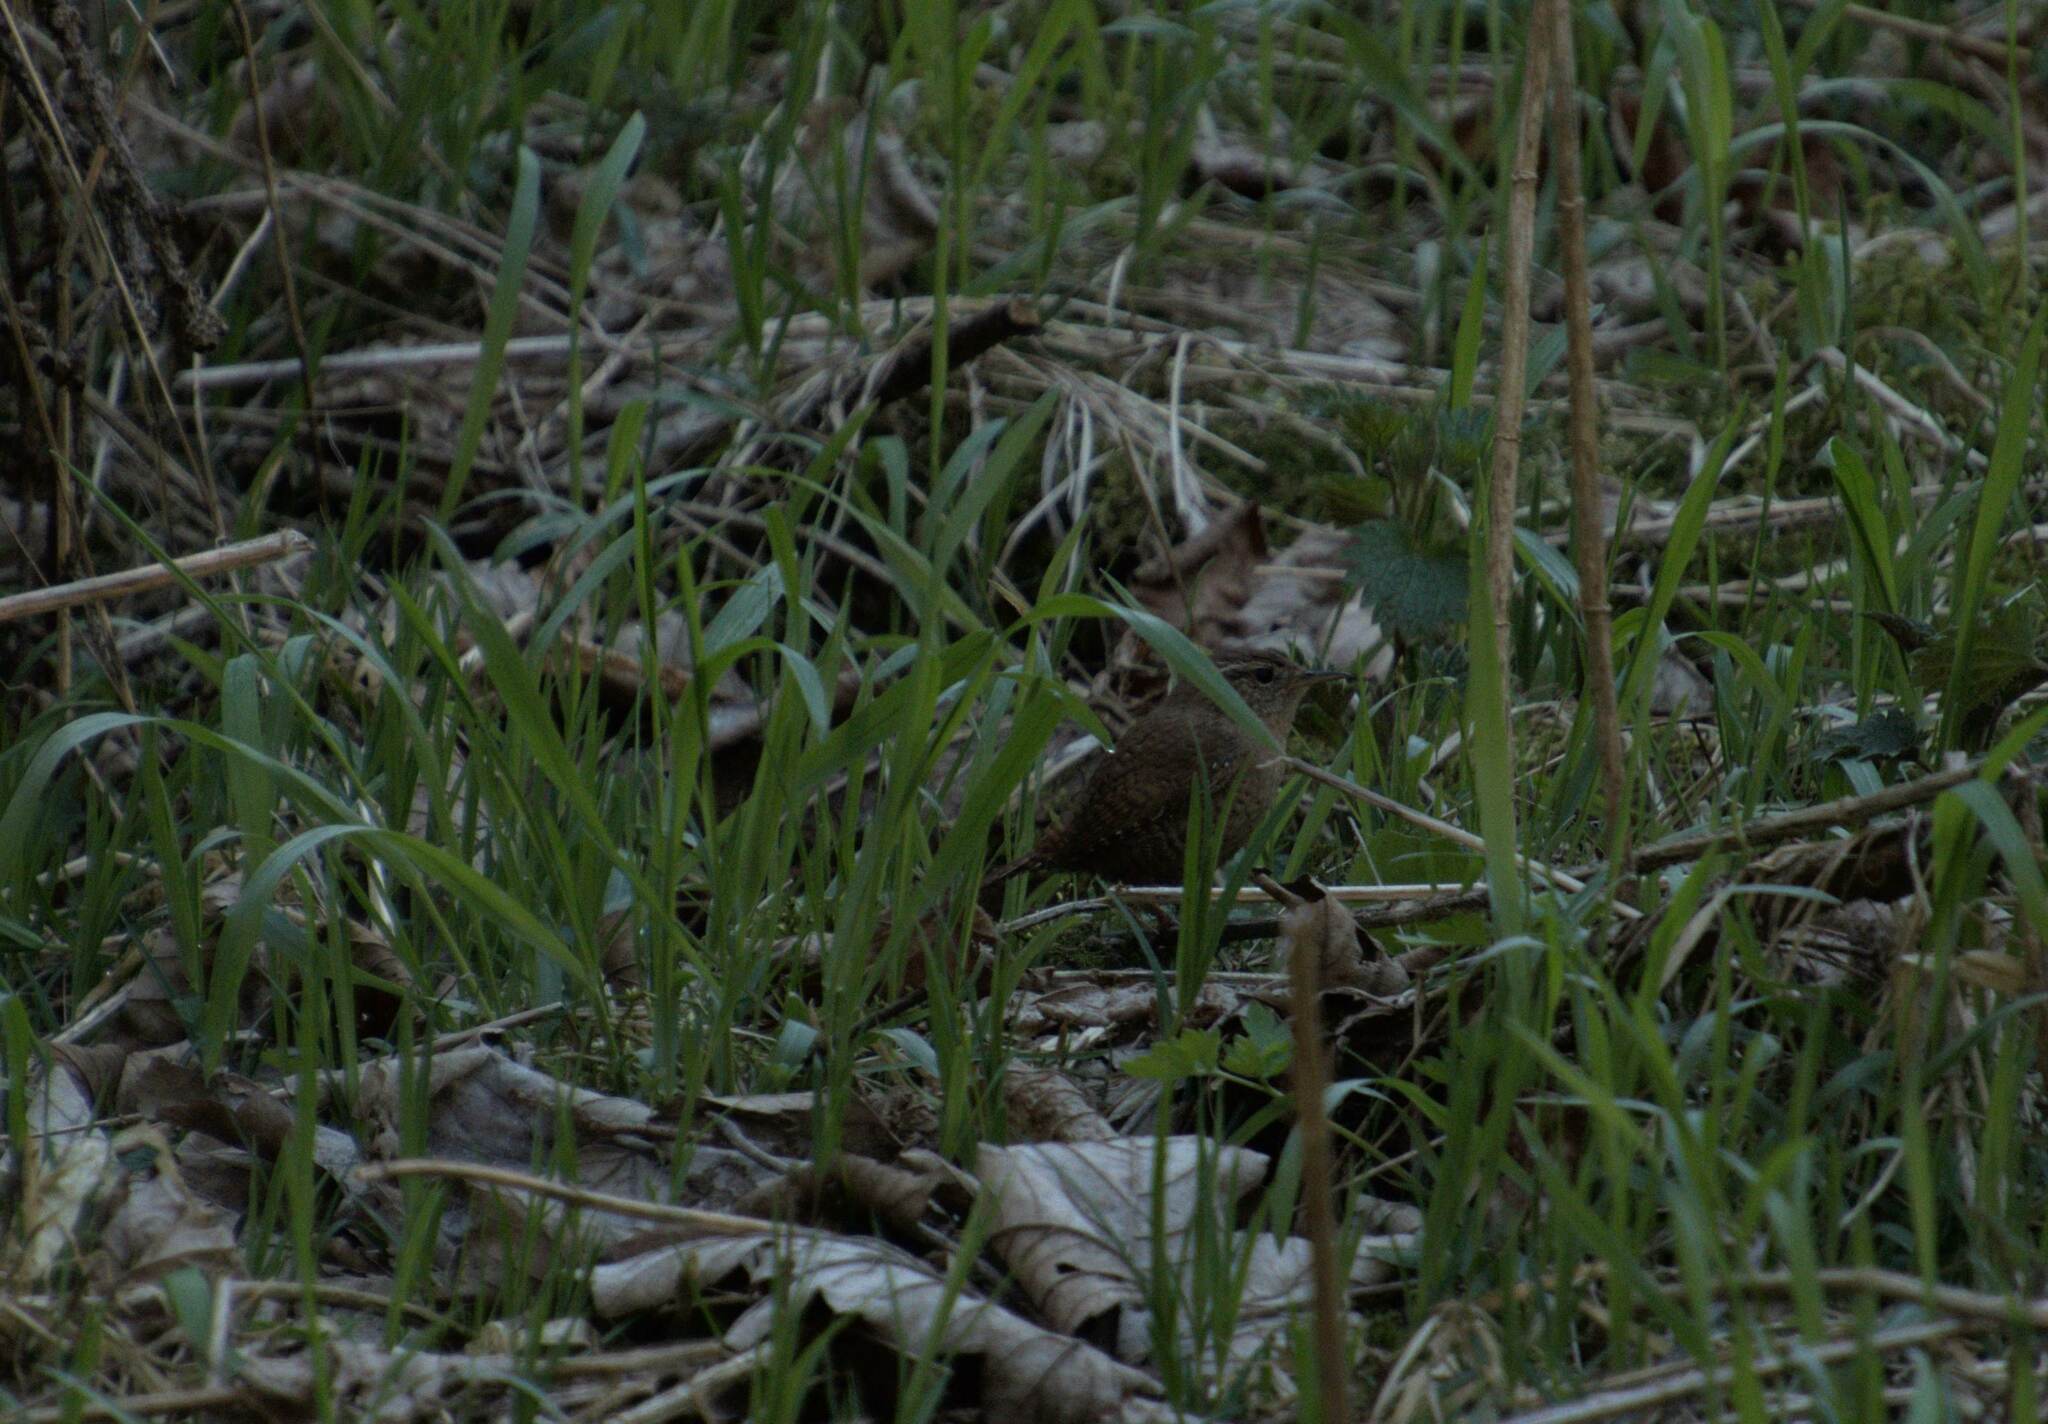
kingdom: Animalia
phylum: Chordata
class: Aves
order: Passeriformes
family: Troglodytidae
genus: Troglodytes
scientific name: Troglodytes troglodytes
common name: Eurasian wren
